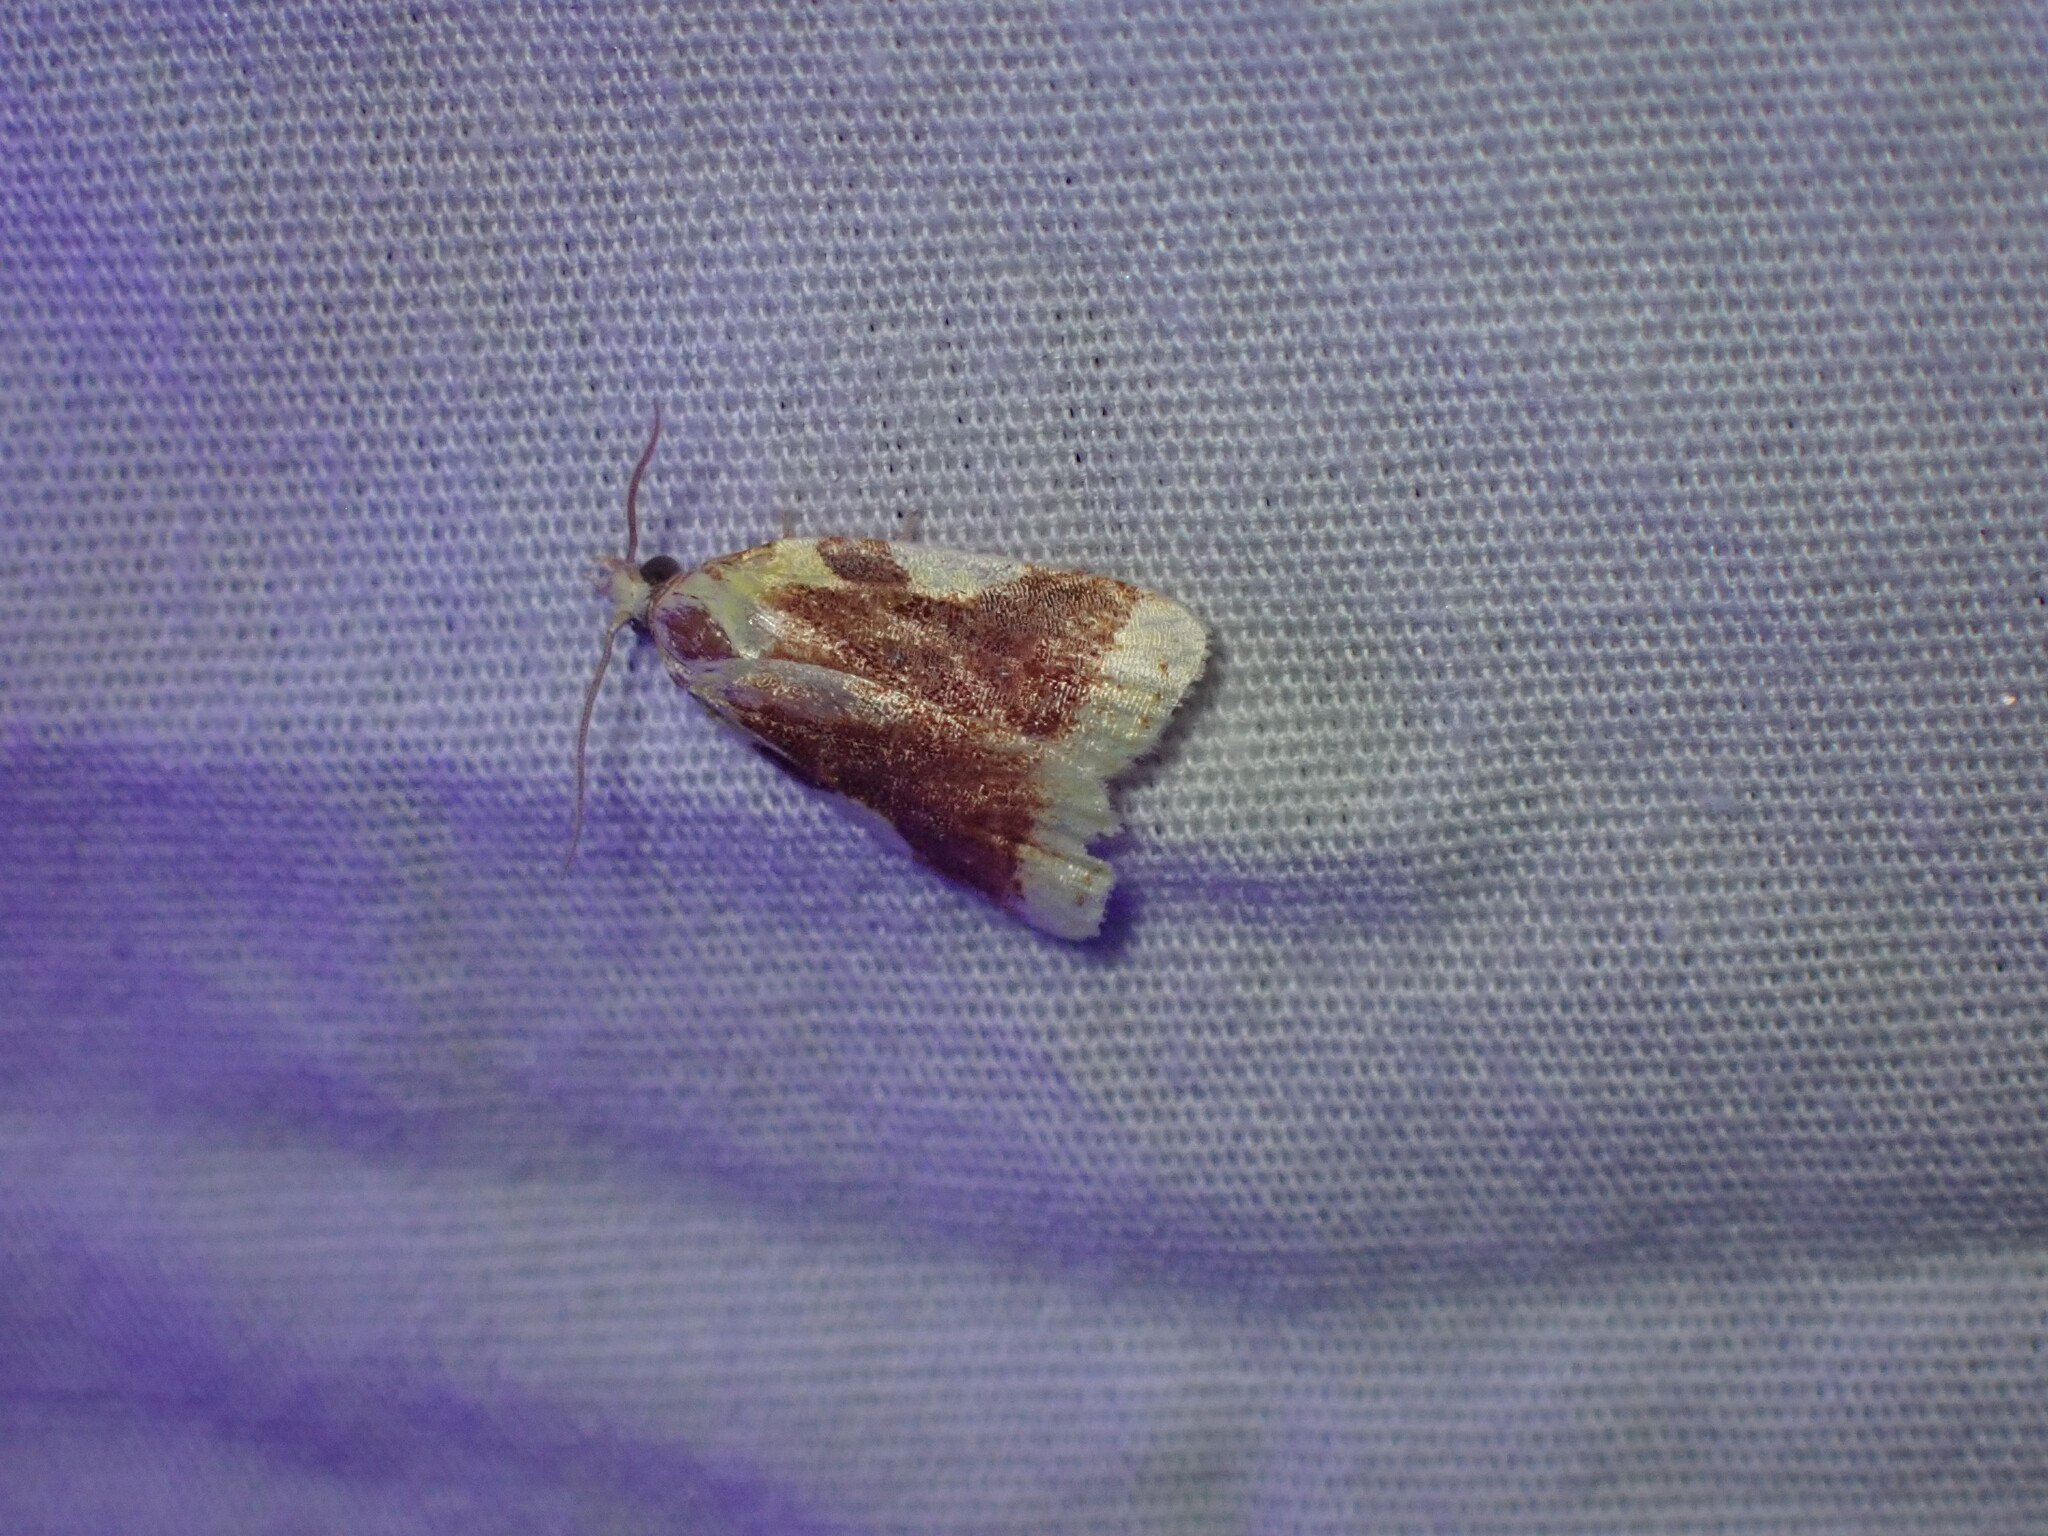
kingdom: Animalia
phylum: Arthropoda
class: Insecta
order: Lepidoptera
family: Tortricidae
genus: Sparganothis
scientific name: Sparganothis pulcherrimana
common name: Beautiful sparganothis
